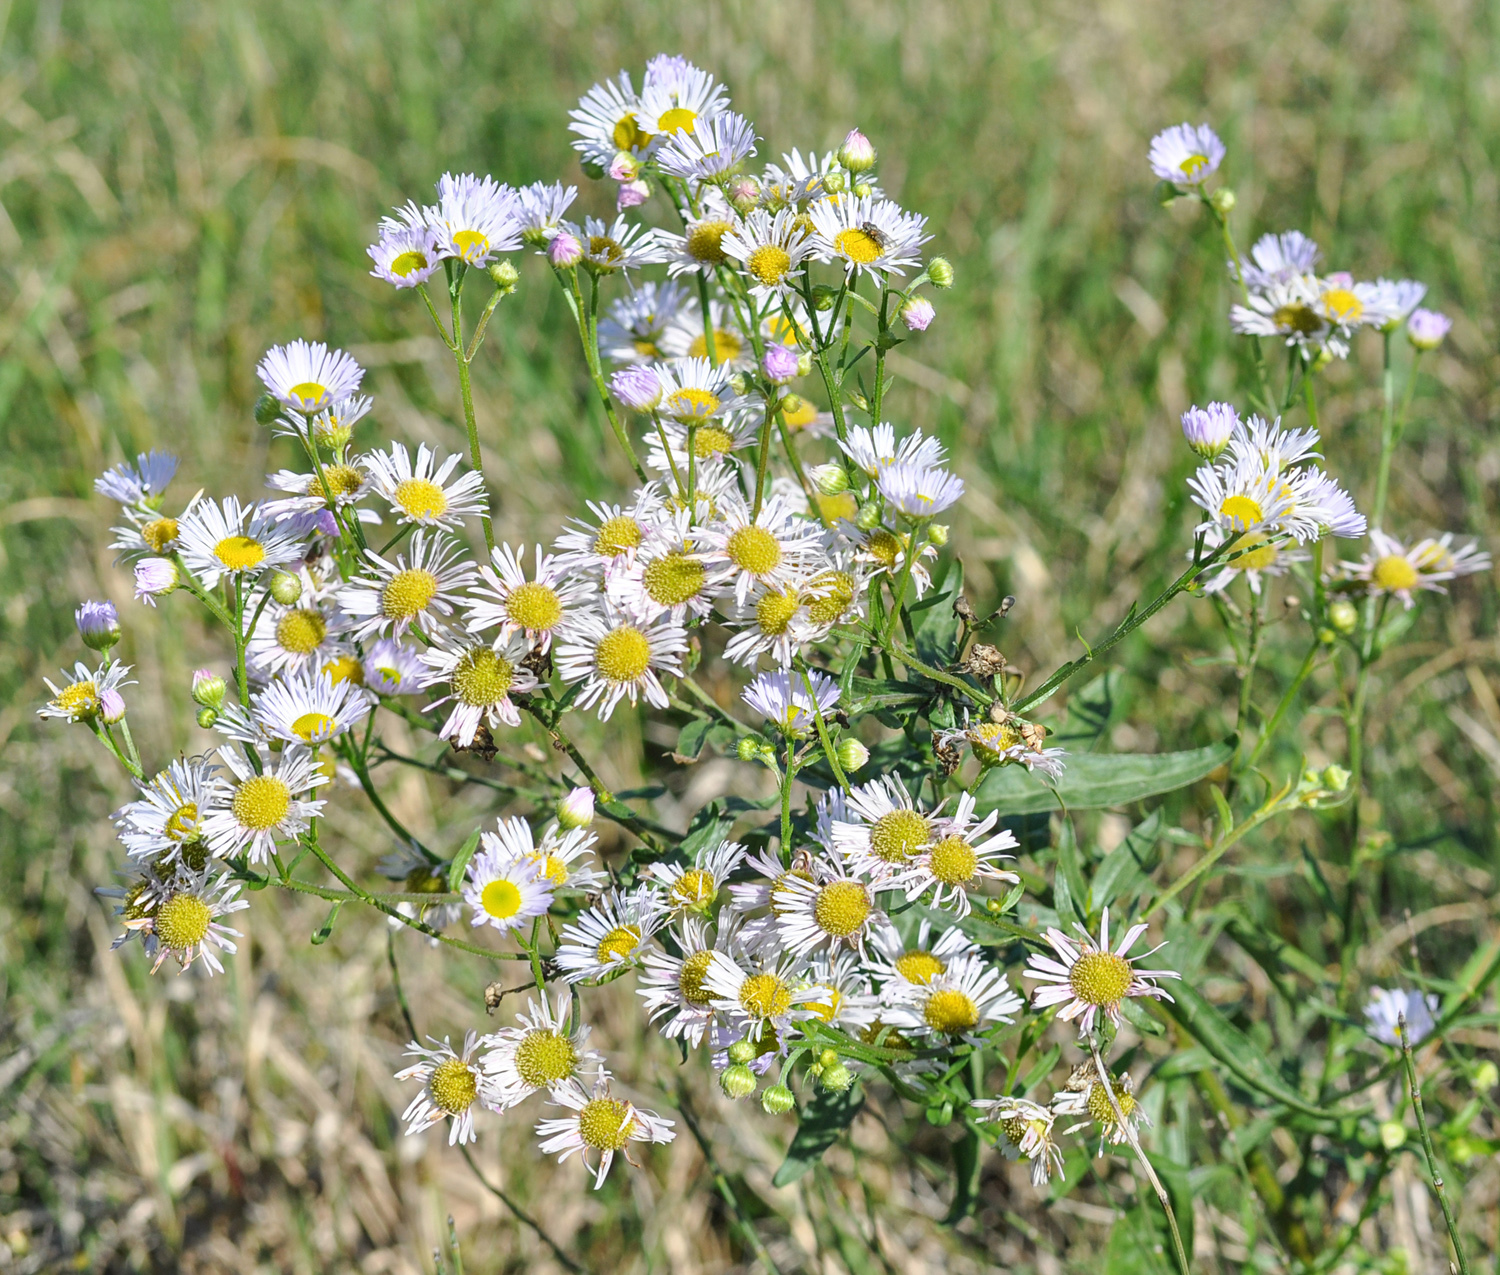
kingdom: Plantae
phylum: Tracheophyta
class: Magnoliopsida
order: Asterales
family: Asteraceae
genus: Erigeron
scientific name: Erigeron annuus
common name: Tall fleabane
